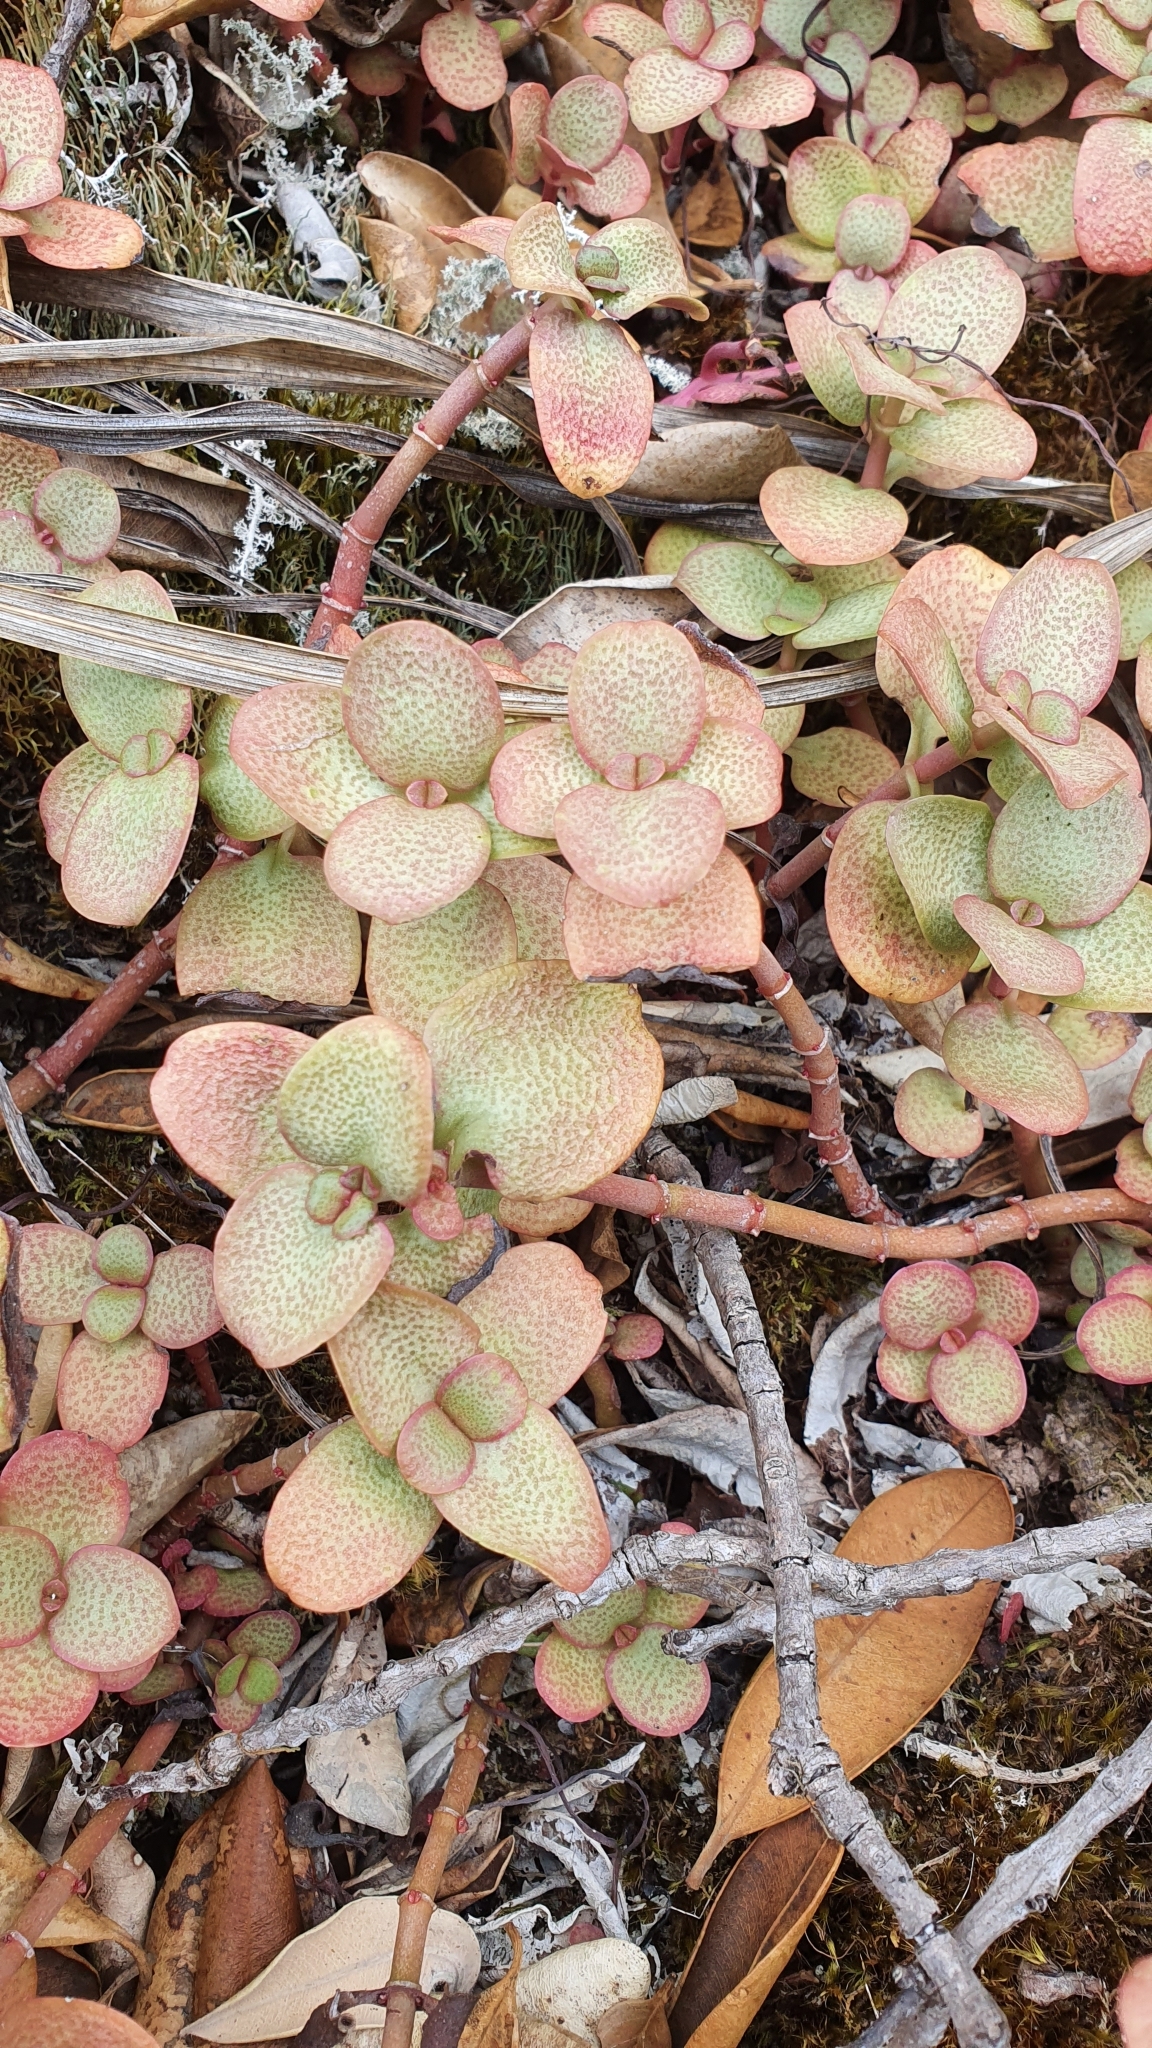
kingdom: Plantae
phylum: Tracheophyta
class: Magnoliopsida
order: Saxifragales
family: Crassulaceae
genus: Crassula
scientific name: Crassula multicava
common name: Cape province pygmyweed
